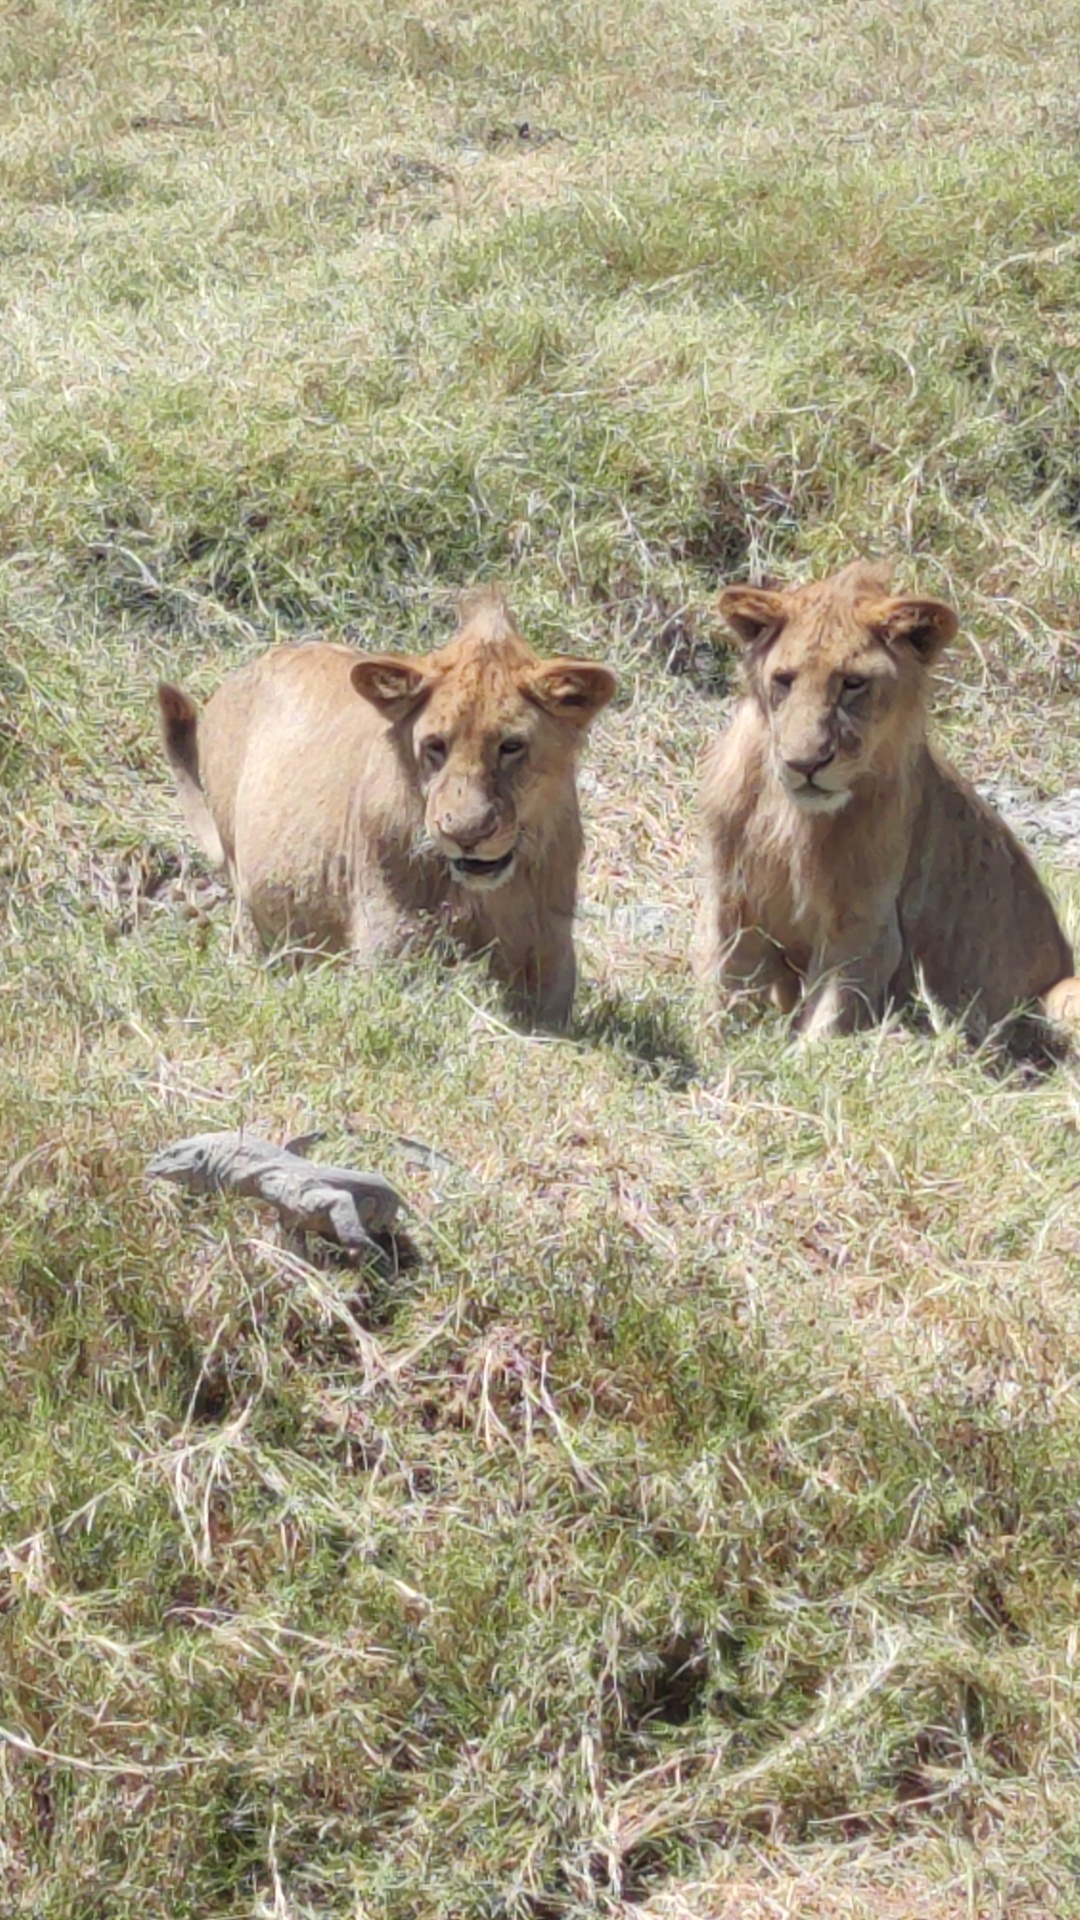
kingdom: Animalia
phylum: Chordata
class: Squamata
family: Varanidae
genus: Varanus
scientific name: Varanus niloticus
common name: Nile monitor
